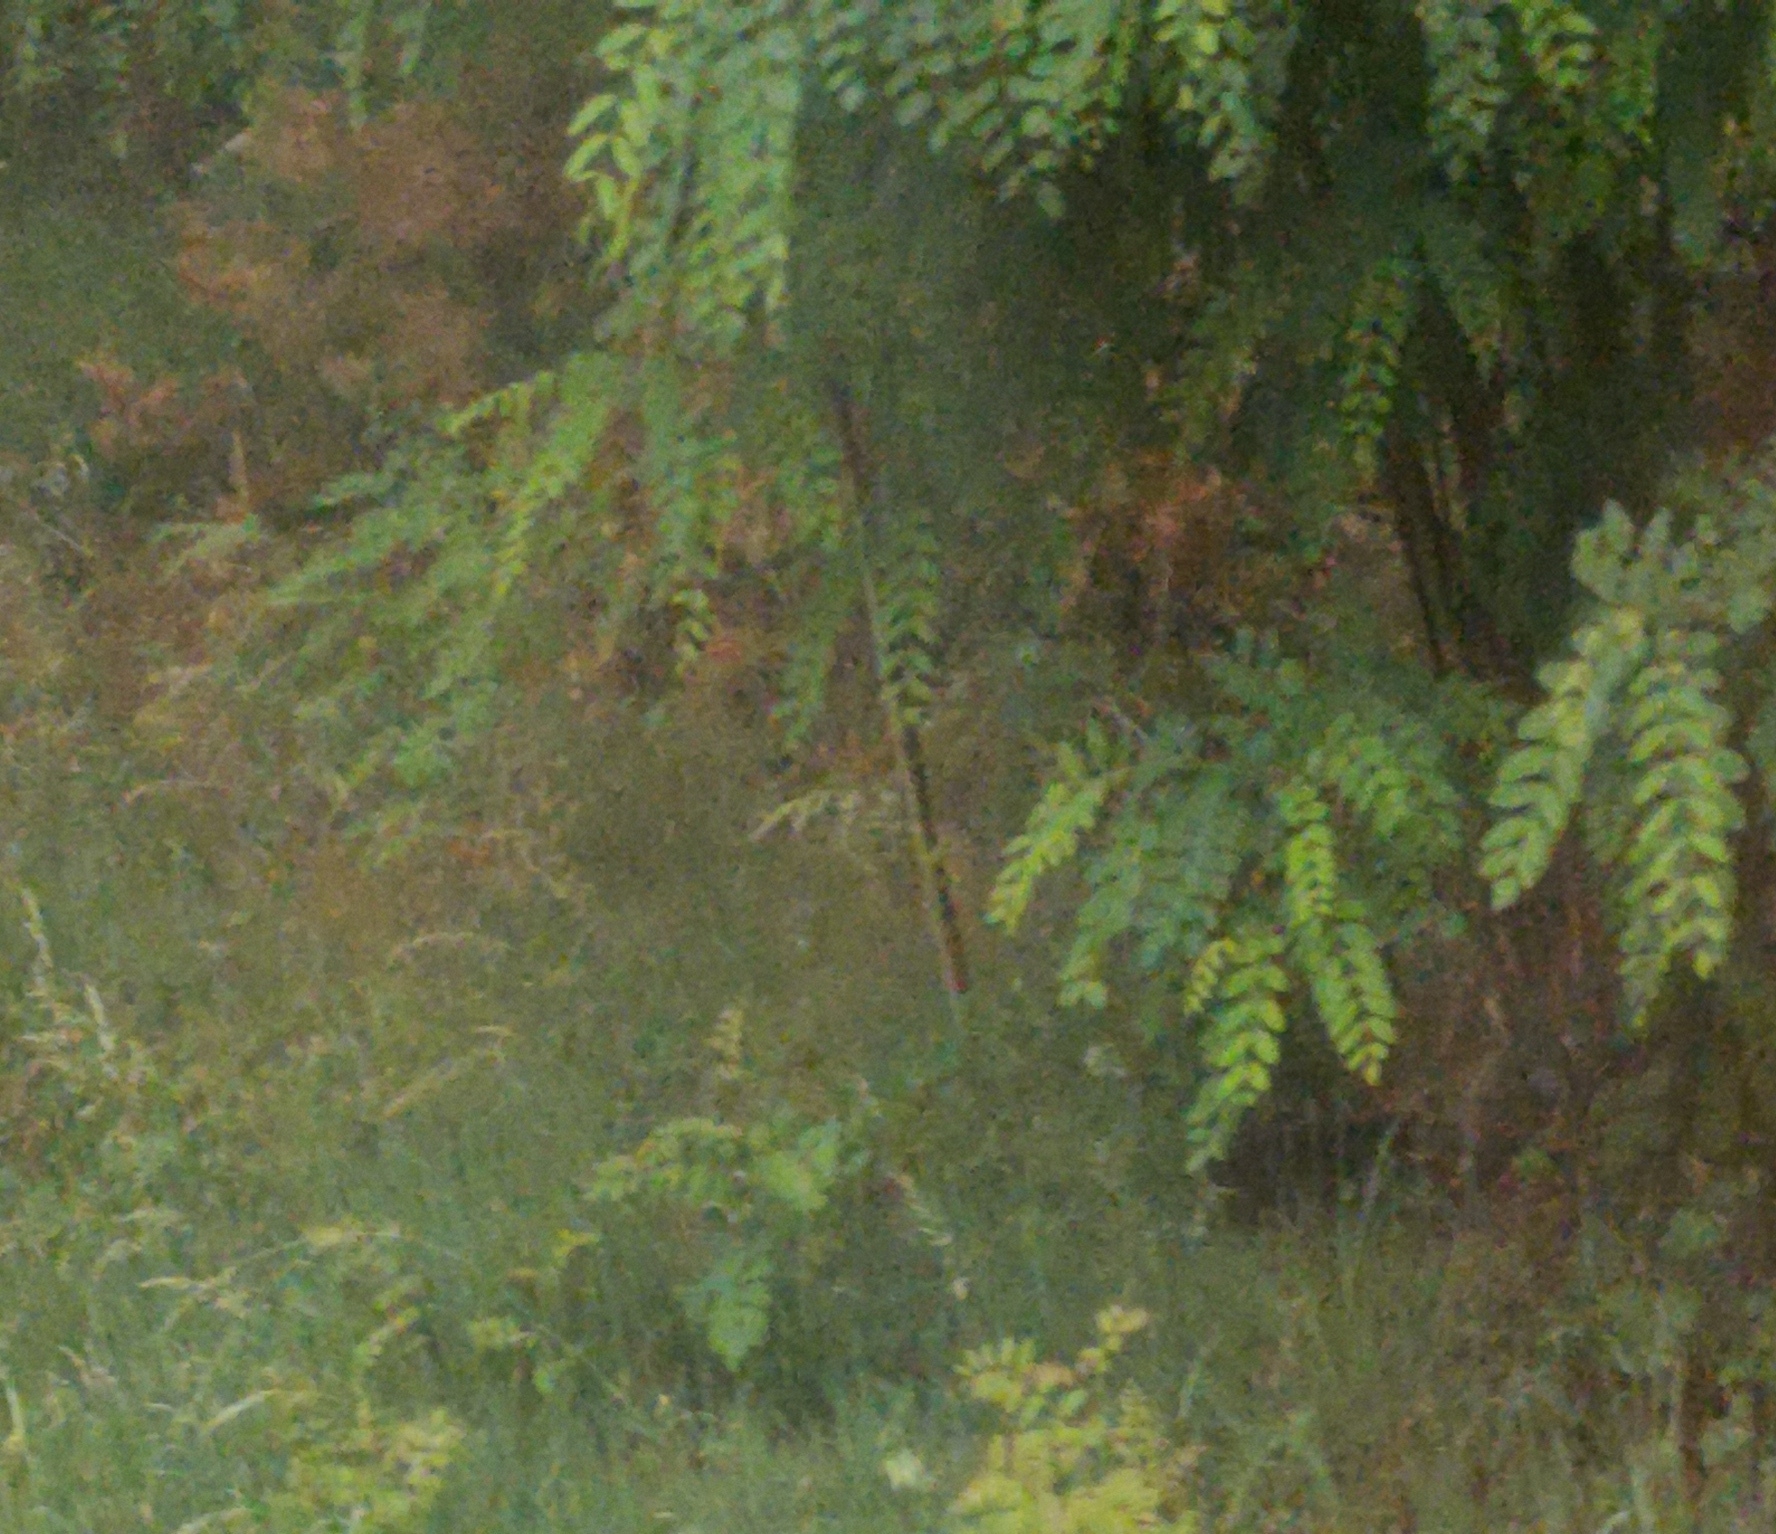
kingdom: Plantae
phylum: Tracheophyta
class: Magnoliopsida
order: Fabales
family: Fabaceae
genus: Robinia
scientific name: Robinia pseudoacacia
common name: Black locust
